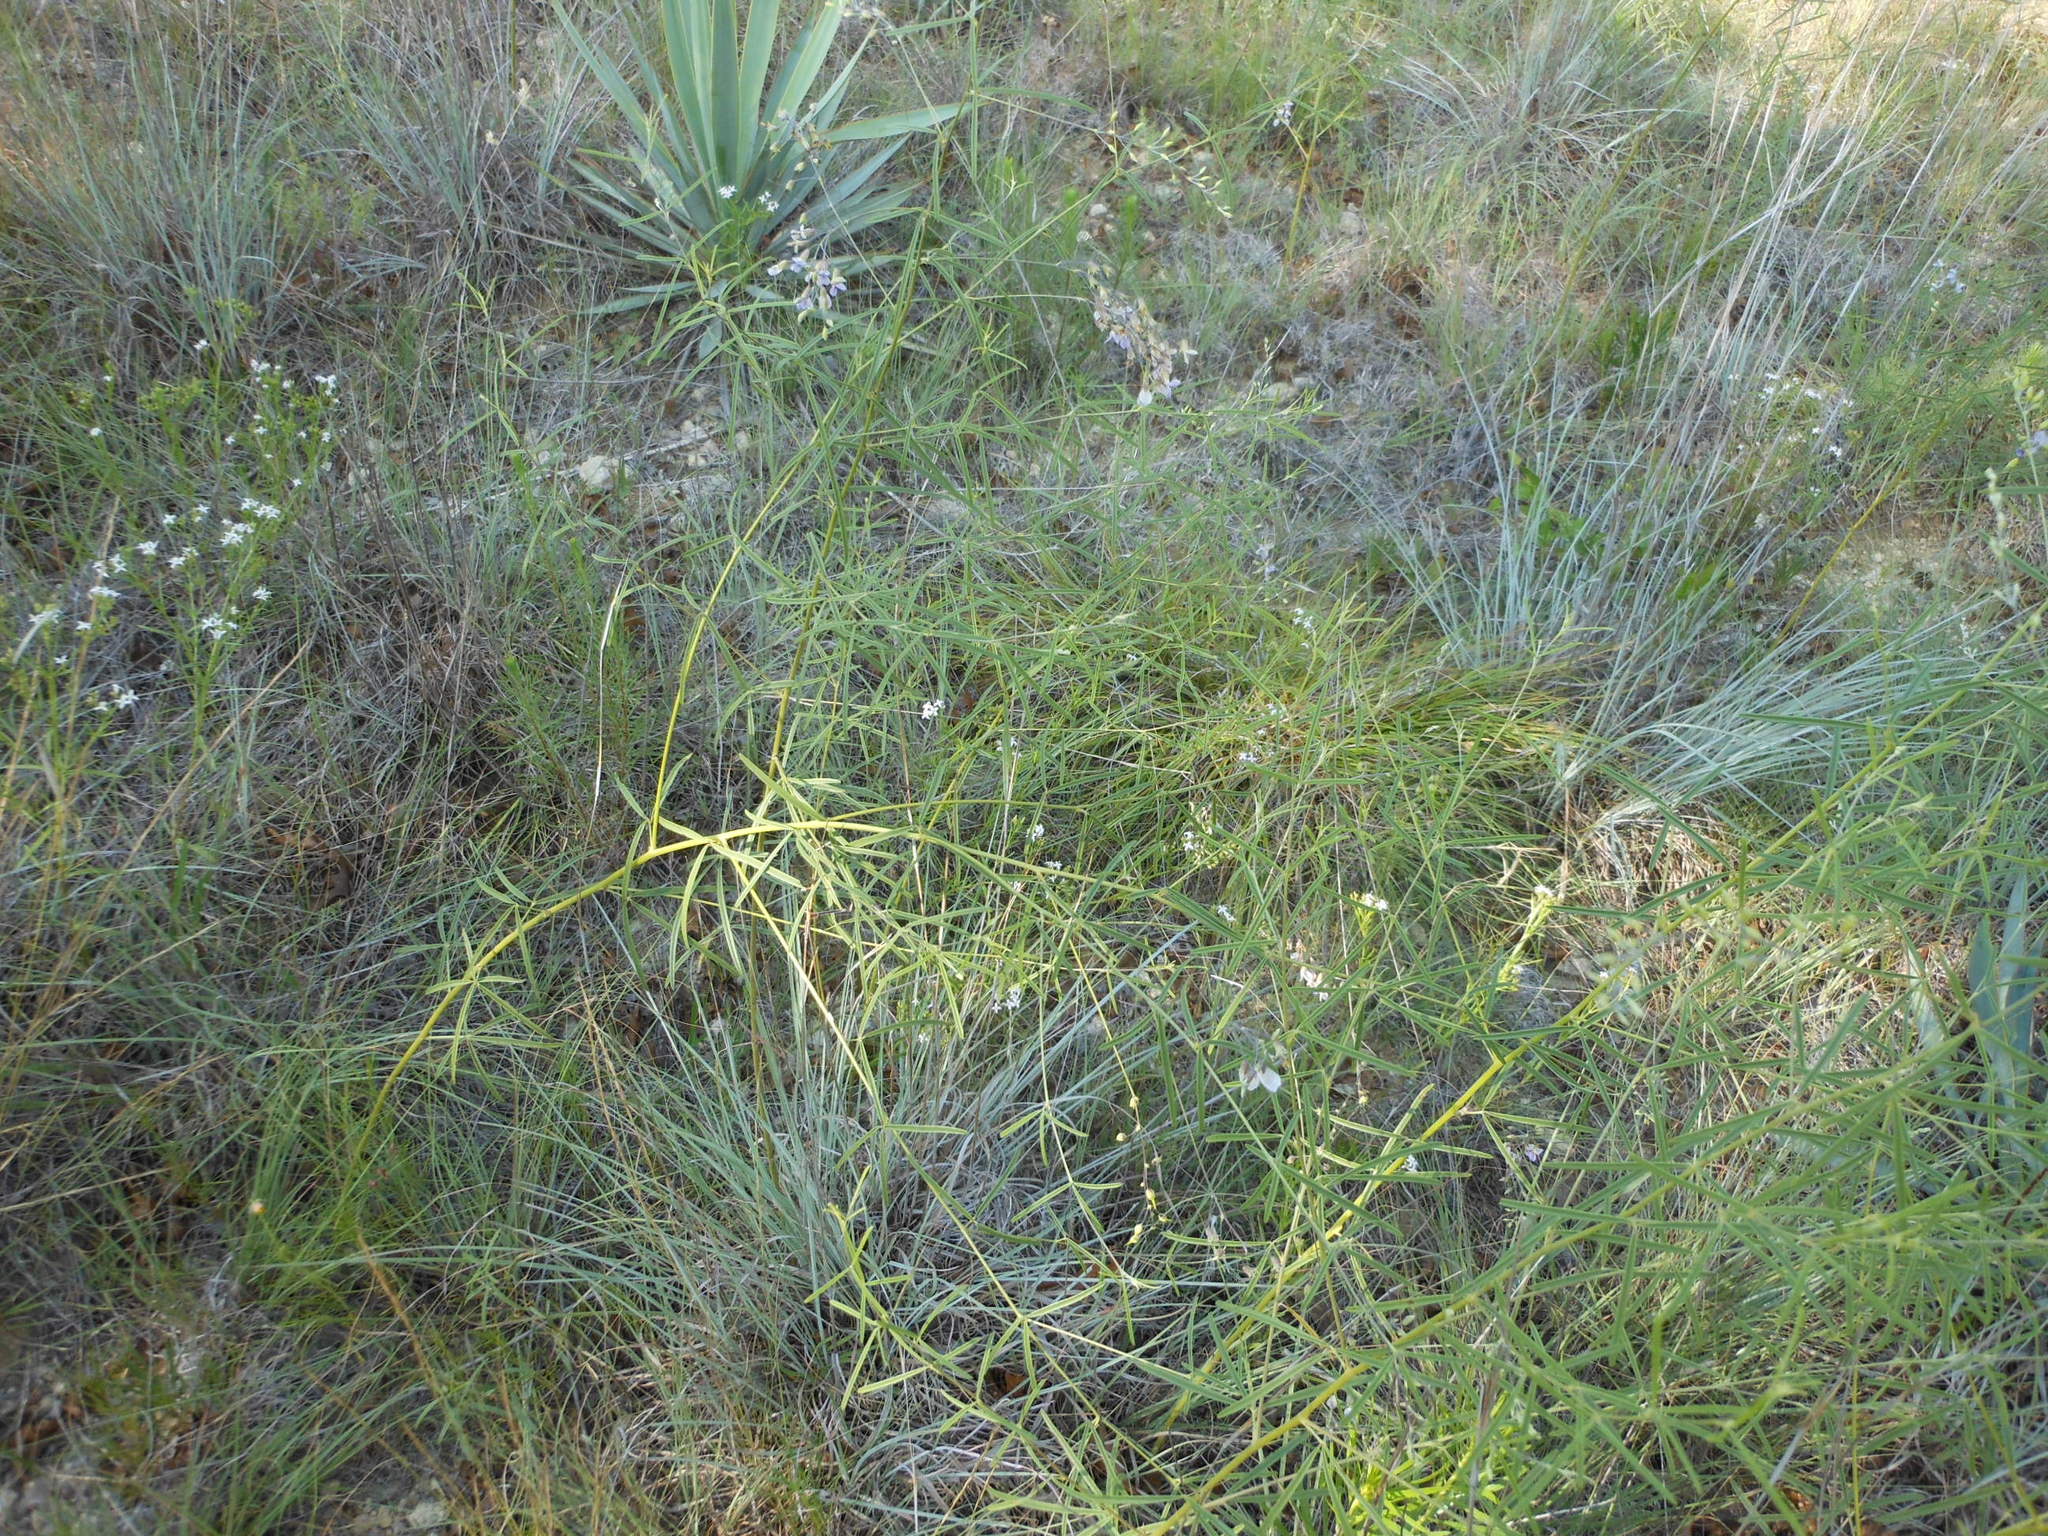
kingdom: Plantae
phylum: Tracheophyta
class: Magnoliopsida
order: Fabales
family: Fabaceae
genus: Pediomelum
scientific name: Pediomelum linearifolium
